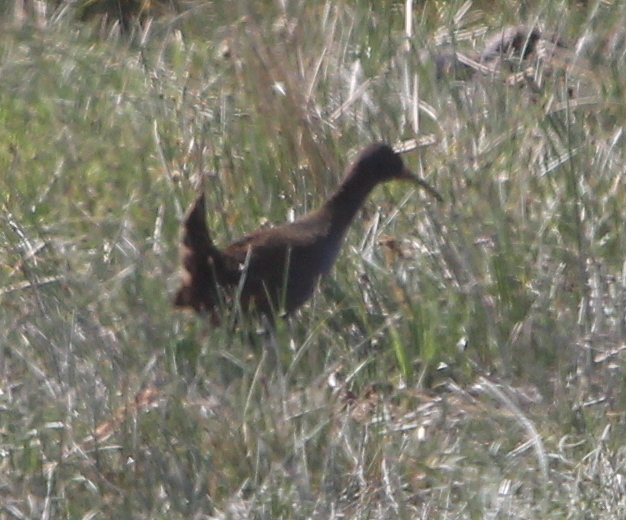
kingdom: Animalia
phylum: Chordata
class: Aves
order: Gruiformes
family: Rallidae
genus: Pardirallus
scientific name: Pardirallus sanguinolentus
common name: Plumbeous rail
